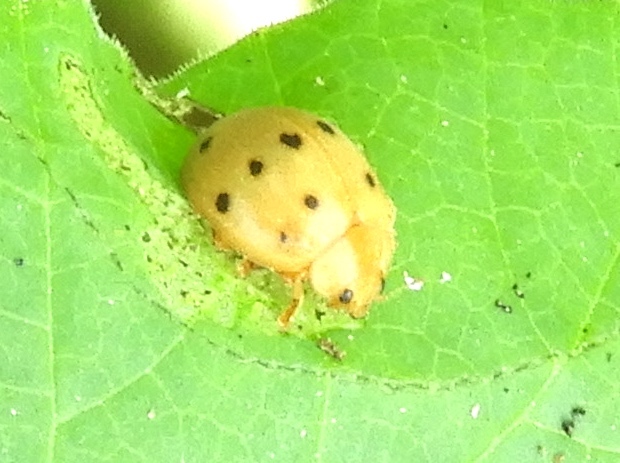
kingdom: Animalia
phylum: Arthropoda
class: Insecta
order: Coleoptera
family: Coccinellidae
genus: Epilachna
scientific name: Epilachna
